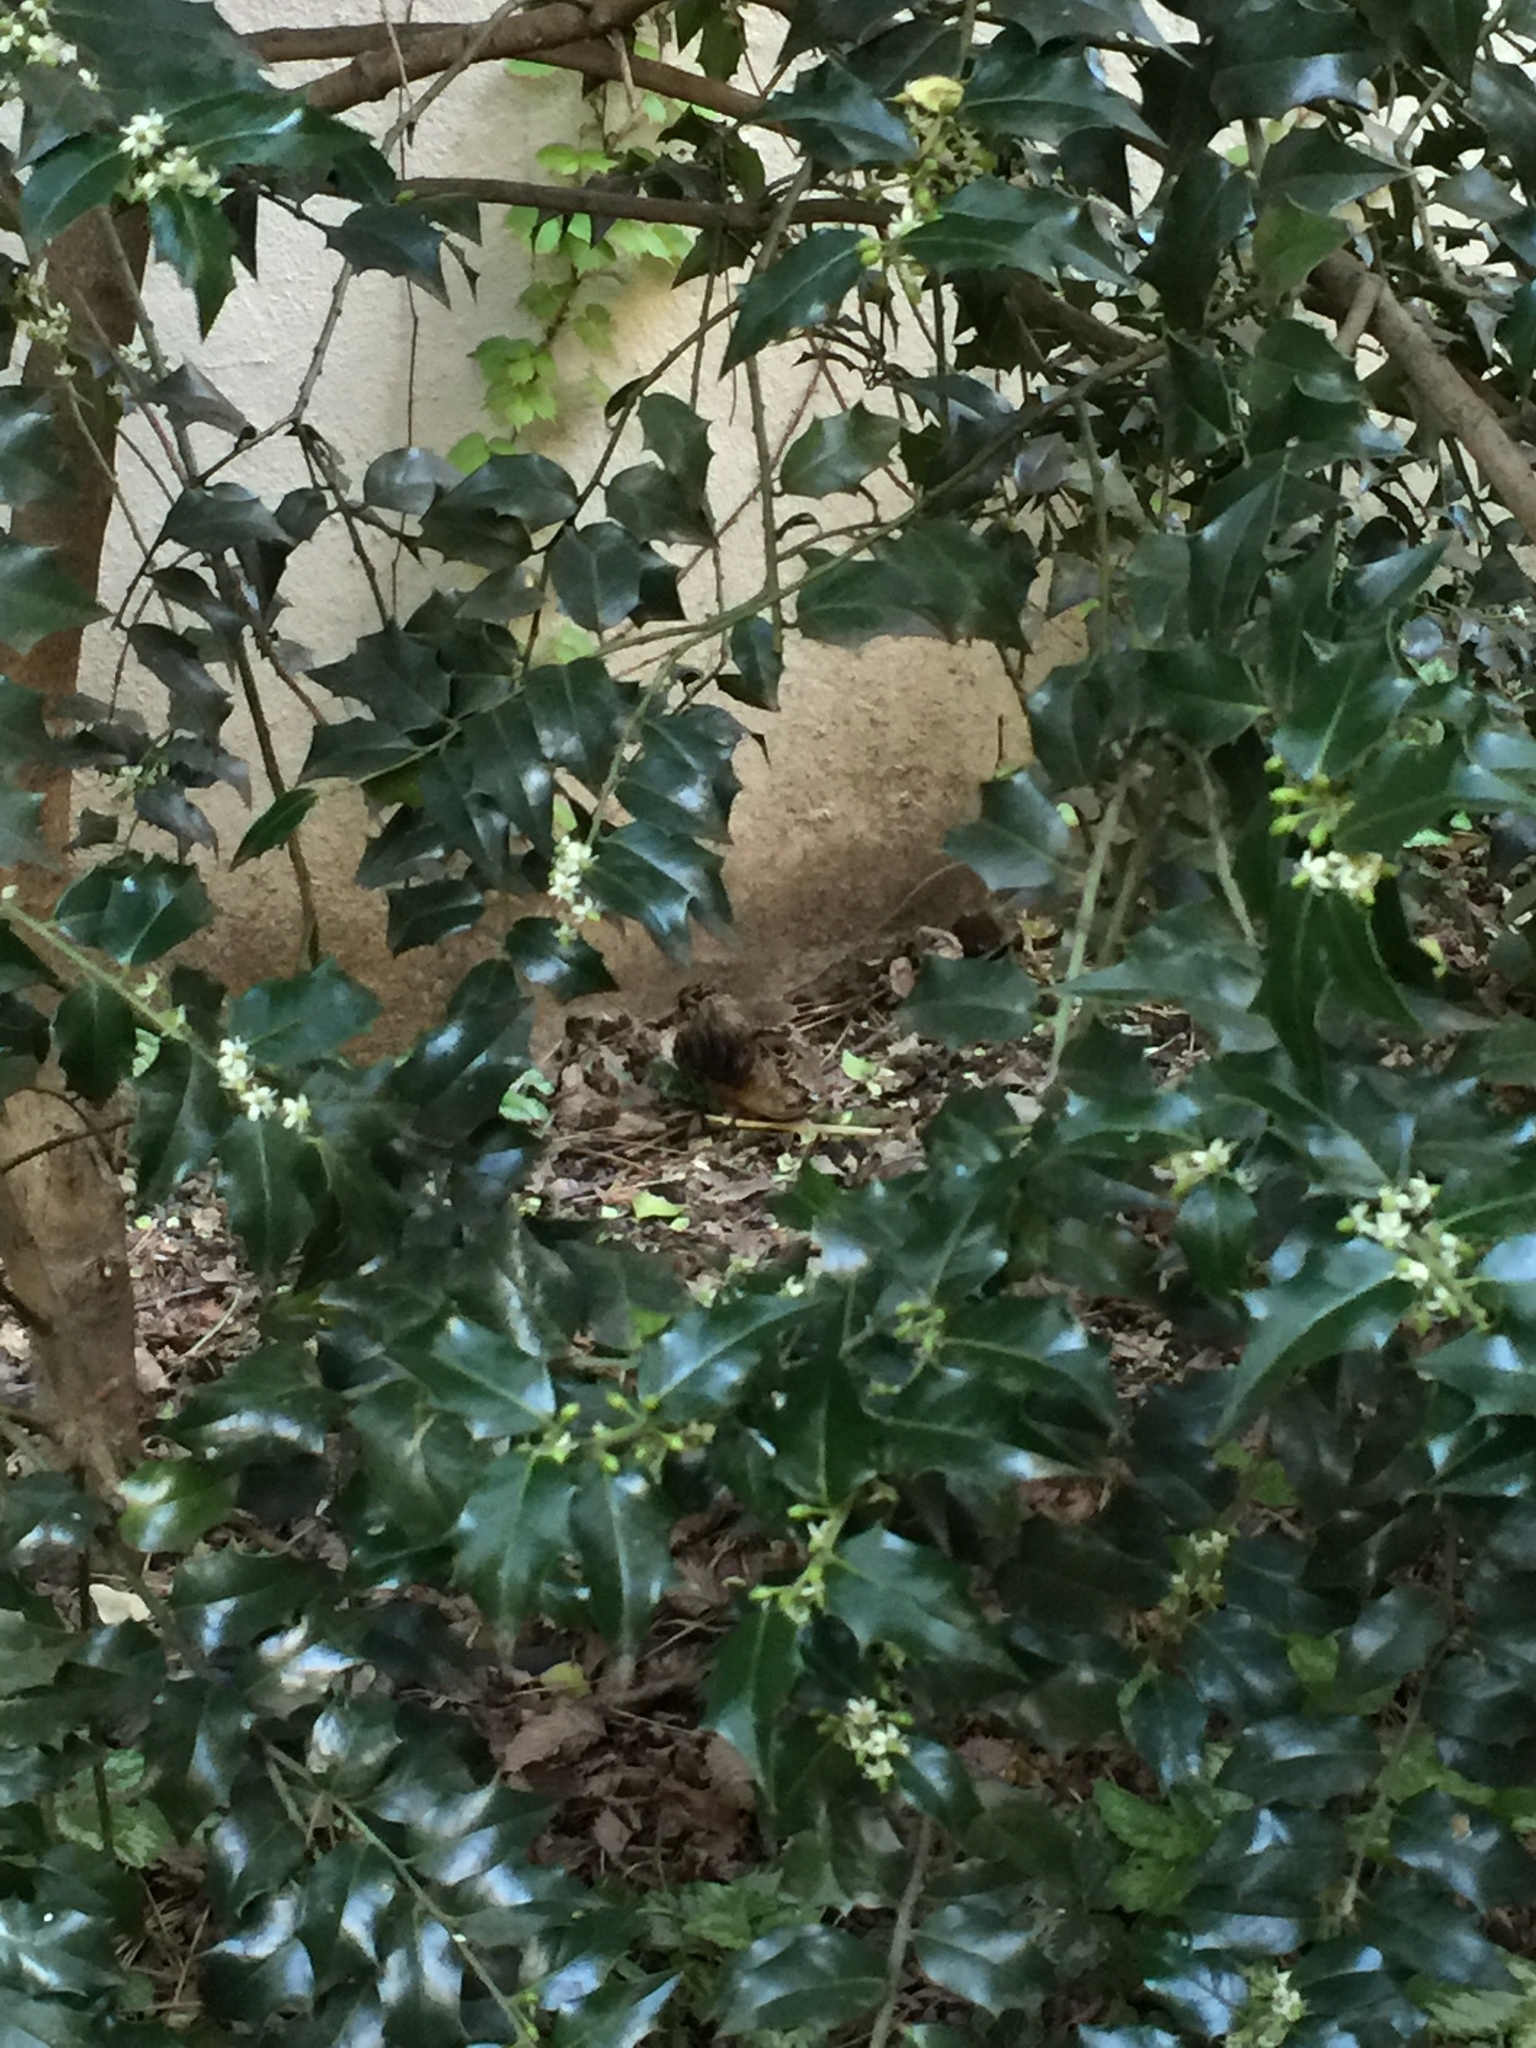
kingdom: Animalia
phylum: Chordata
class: Aves
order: Charadriiformes
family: Scolopacidae
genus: Scolopax
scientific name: Scolopax minor
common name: American woodcock
